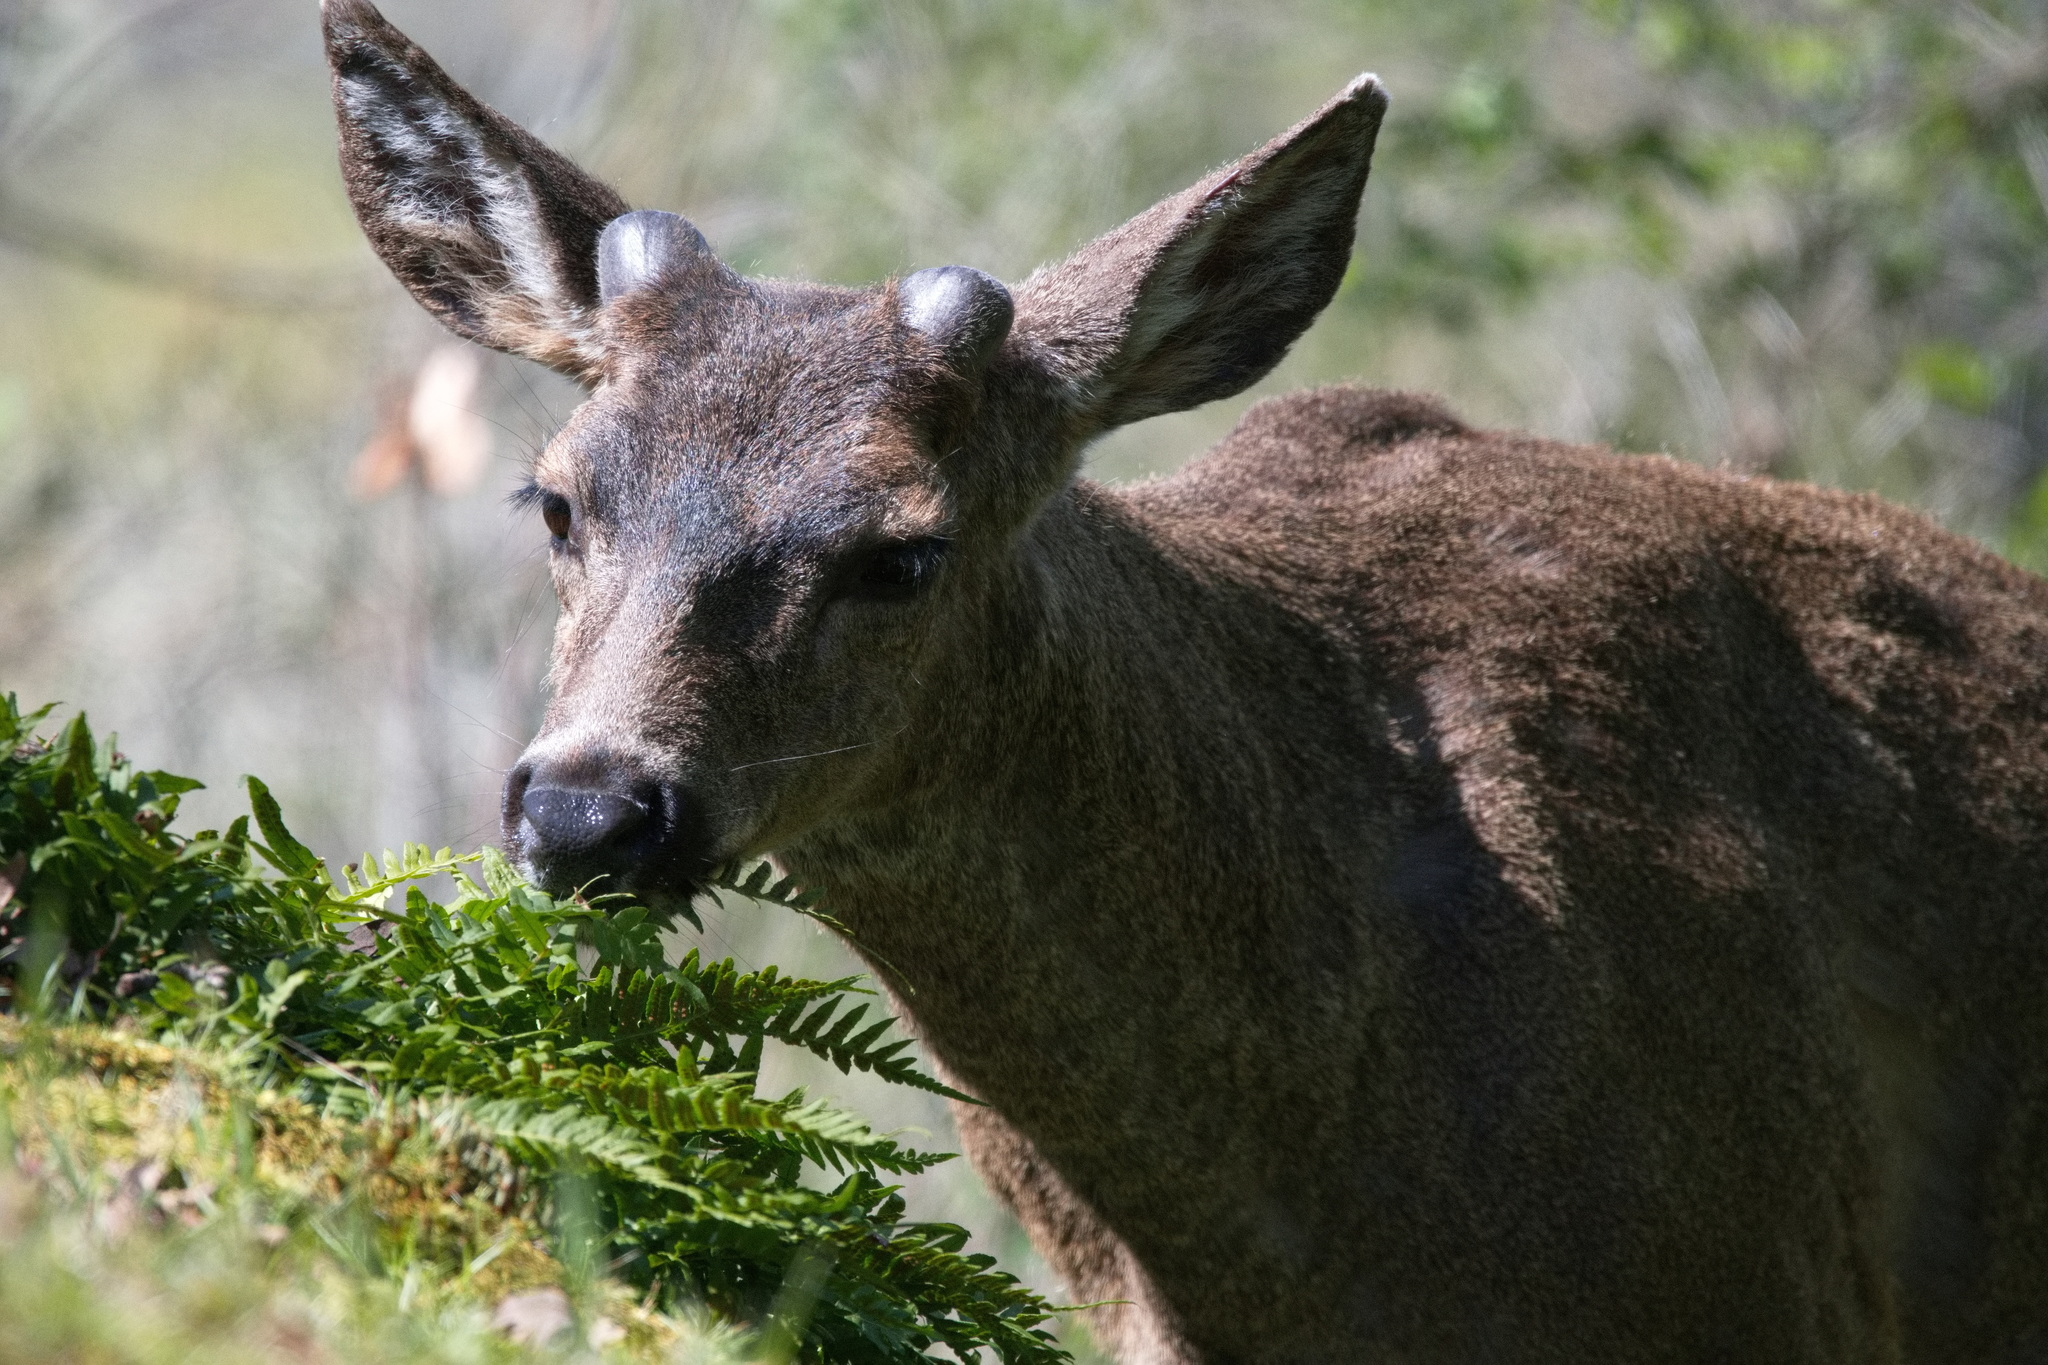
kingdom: Animalia
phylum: Chordata
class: Mammalia
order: Artiodactyla
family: Cervidae
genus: Odocoileus
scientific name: Odocoileus hemionus
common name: Mule deer
